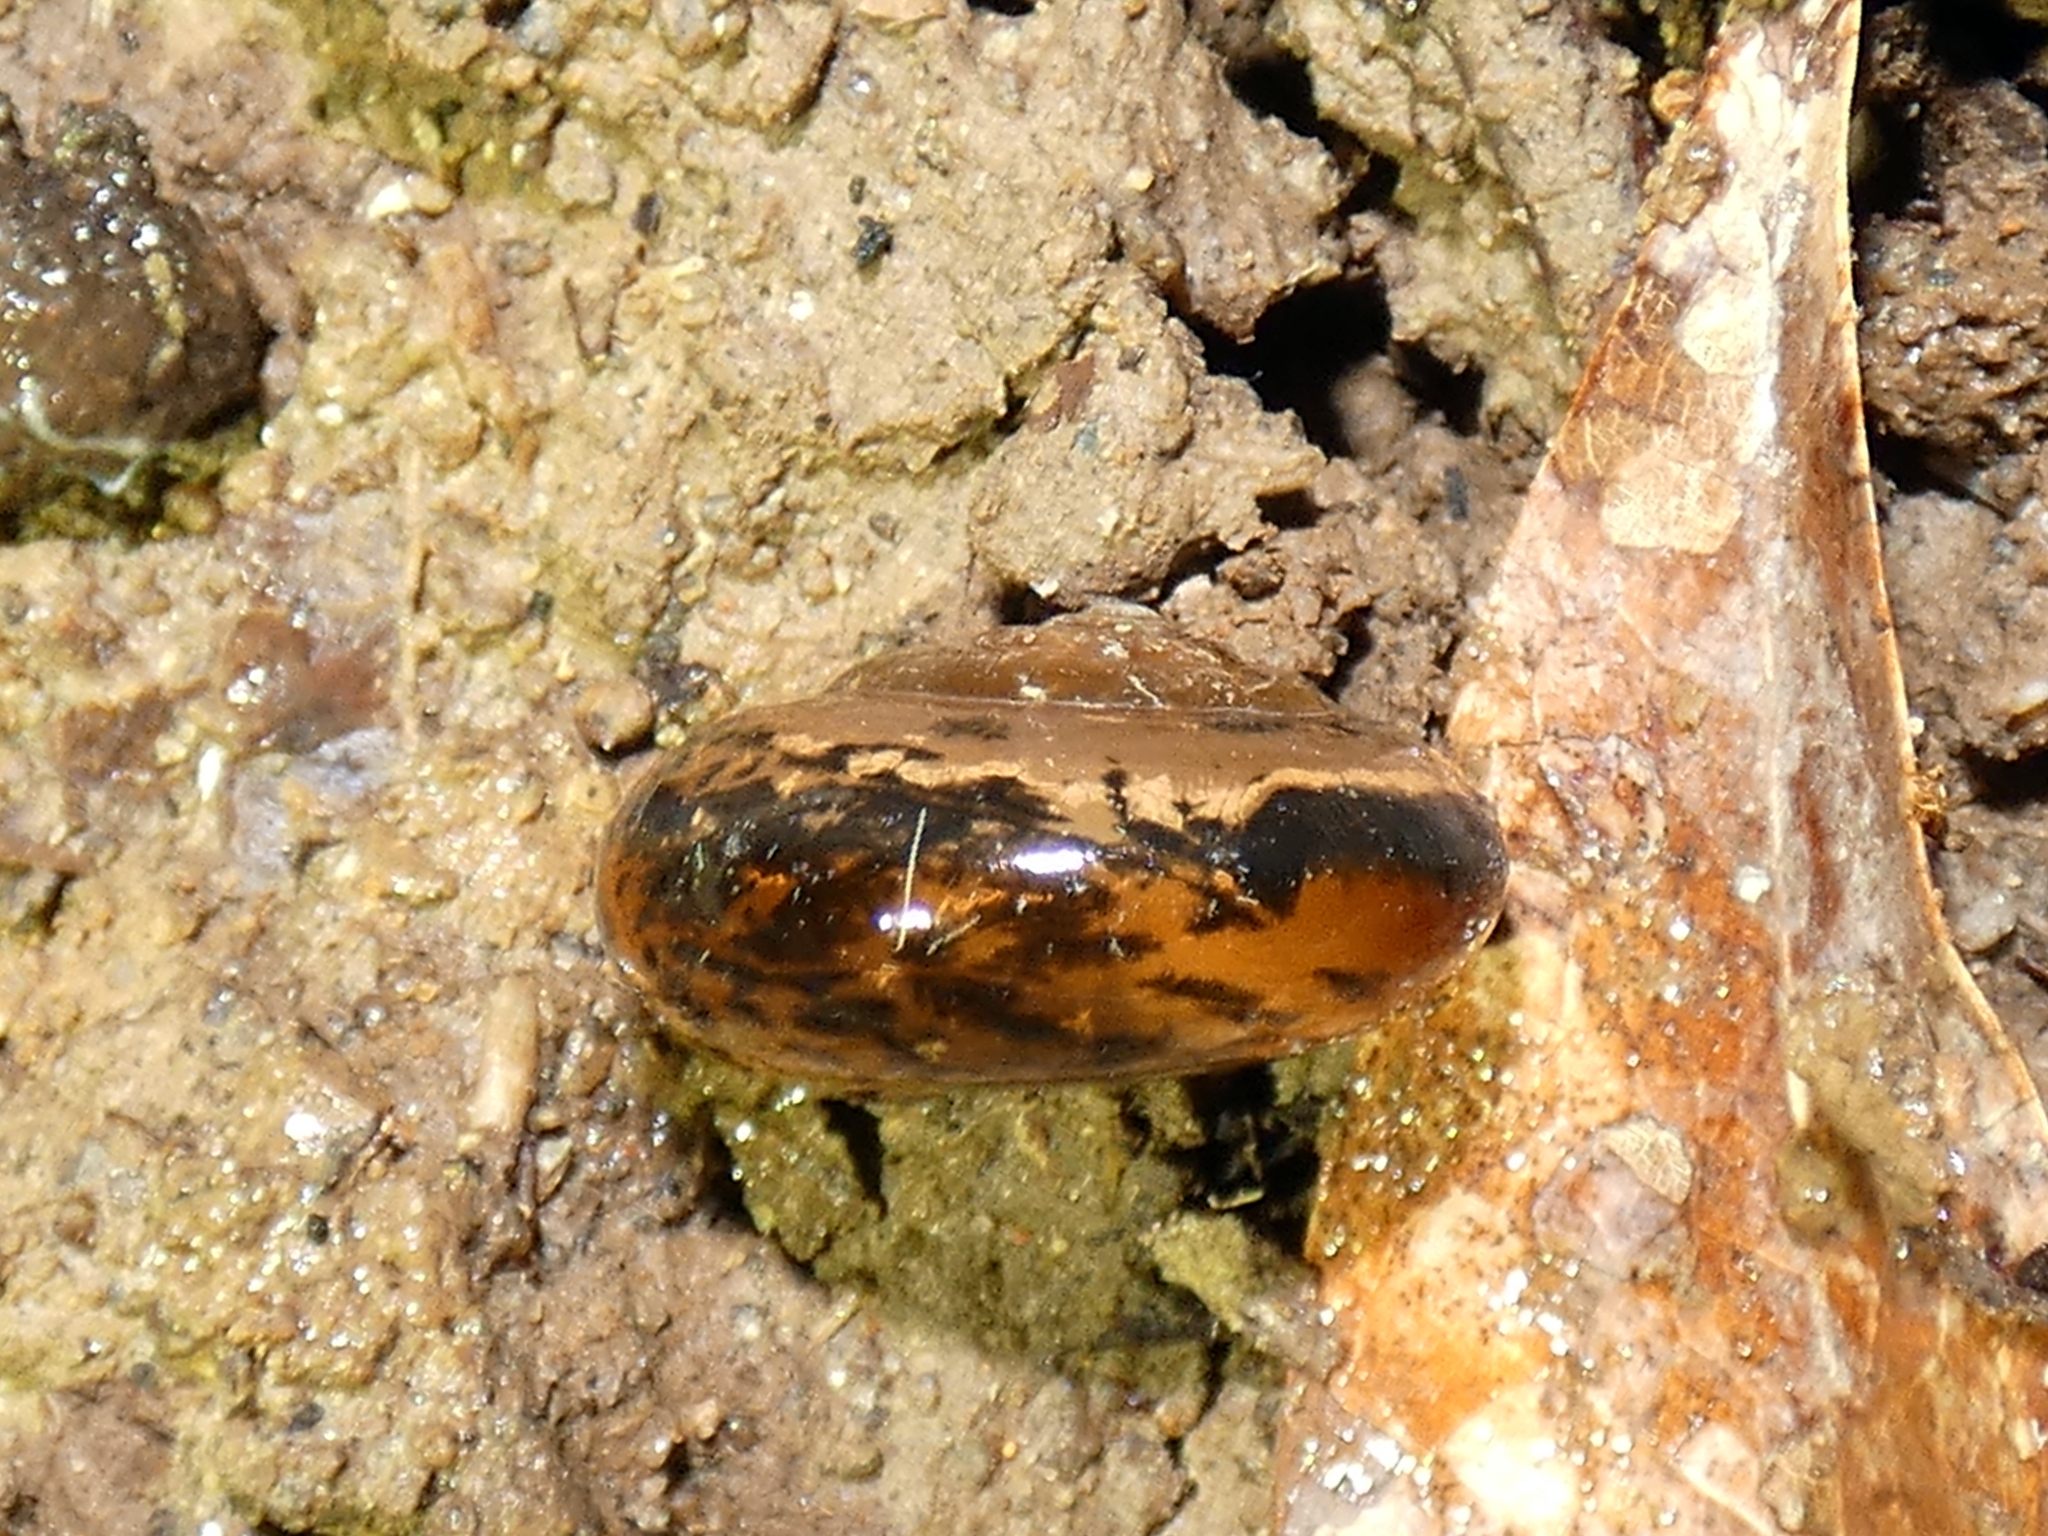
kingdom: Animalia
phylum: Mollusca
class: Gastropoda
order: Stylommatophora
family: Helicarionidae
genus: Pravonitor
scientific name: Pravonitor aquilonius
